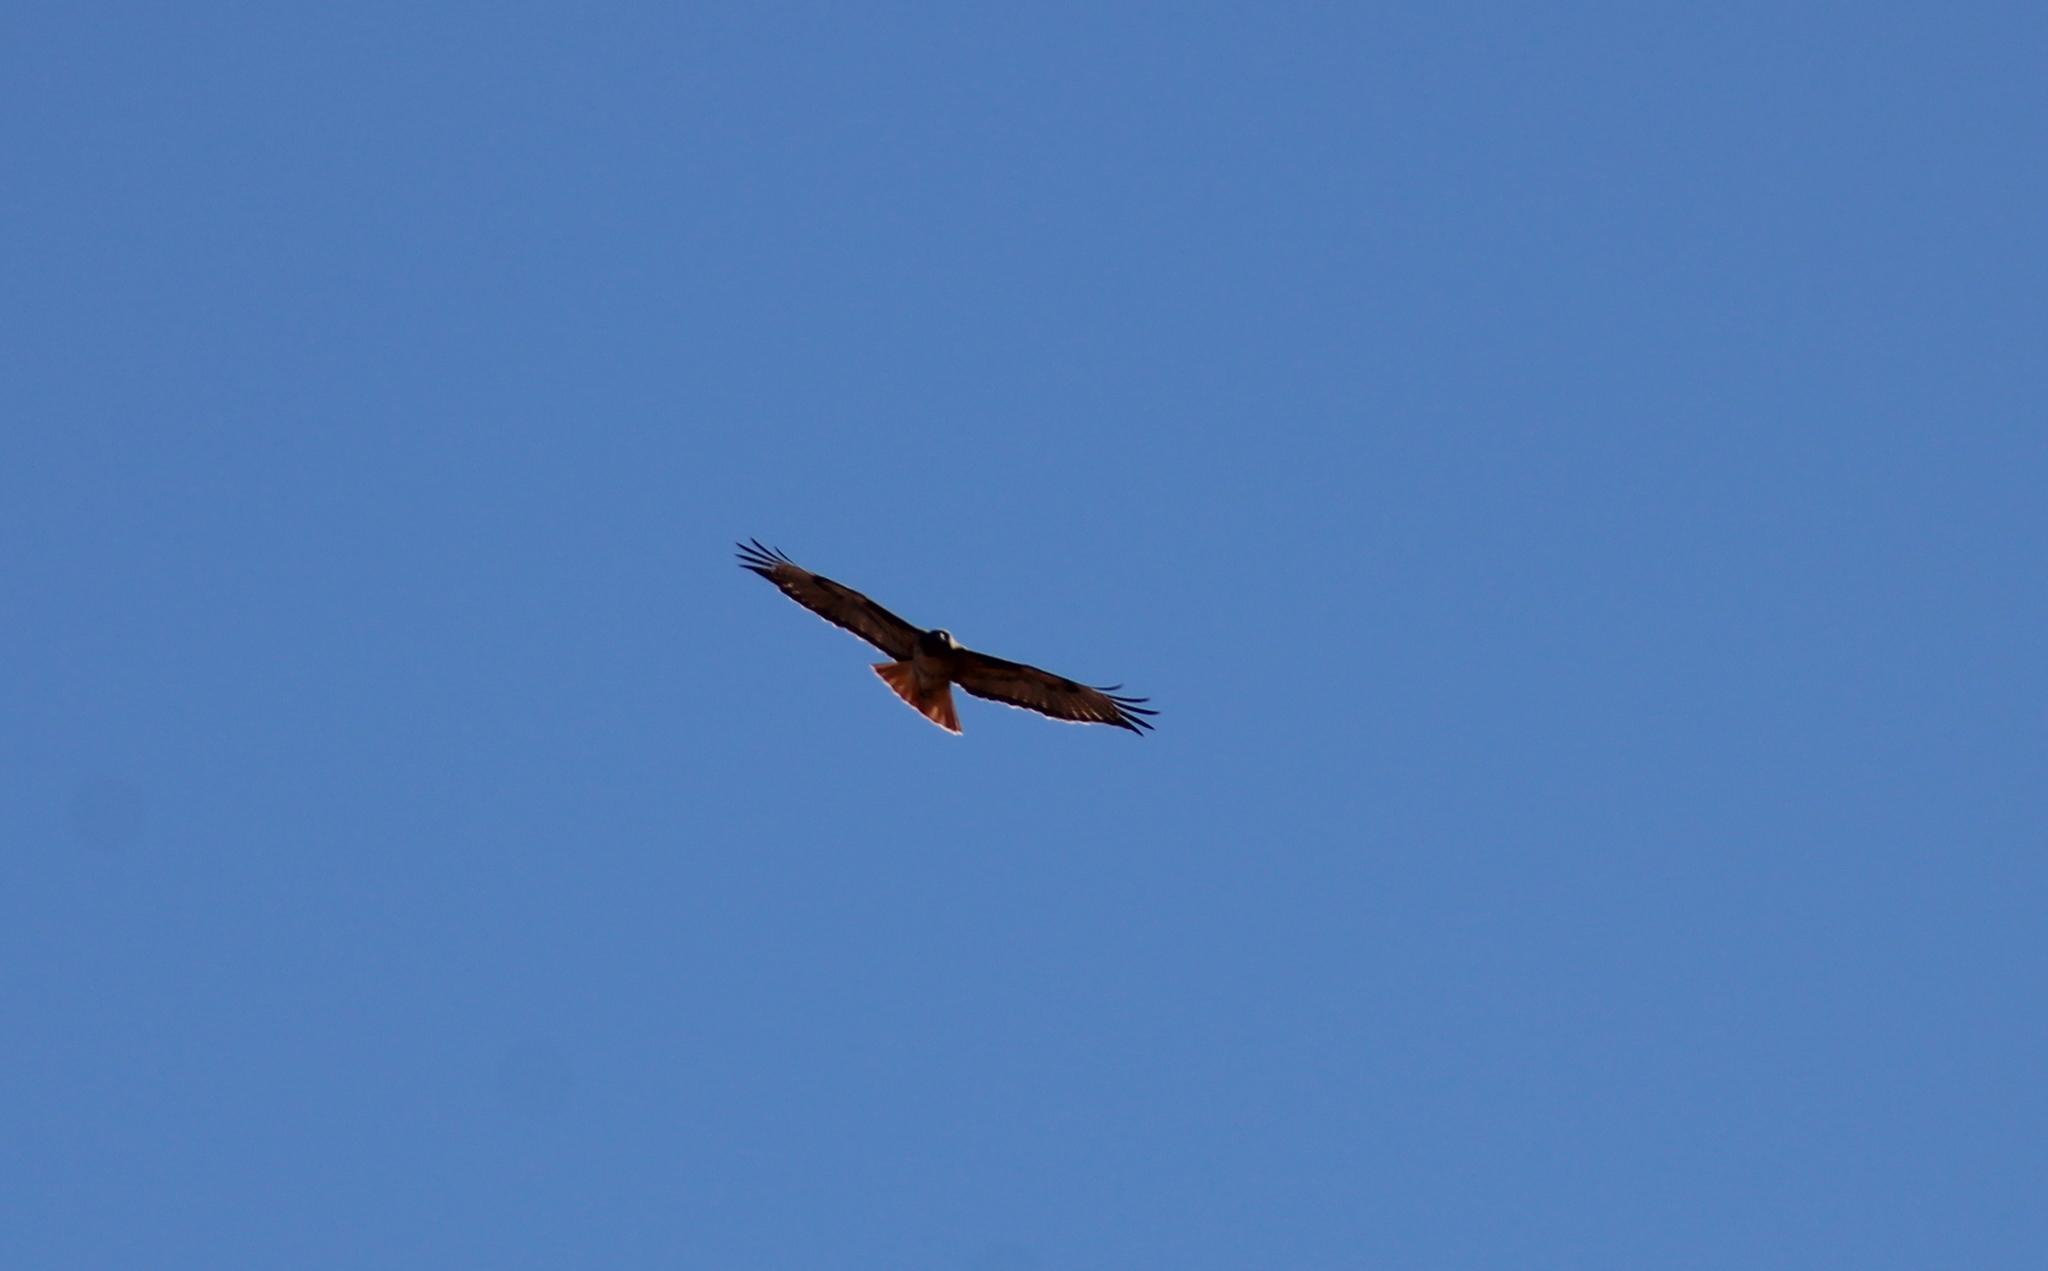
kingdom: Animalia
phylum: Chordata
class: Aves
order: Accipitriformes
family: Accipitridae
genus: Buteo
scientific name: Buteo jamaicensis
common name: Red-tailed hawk
